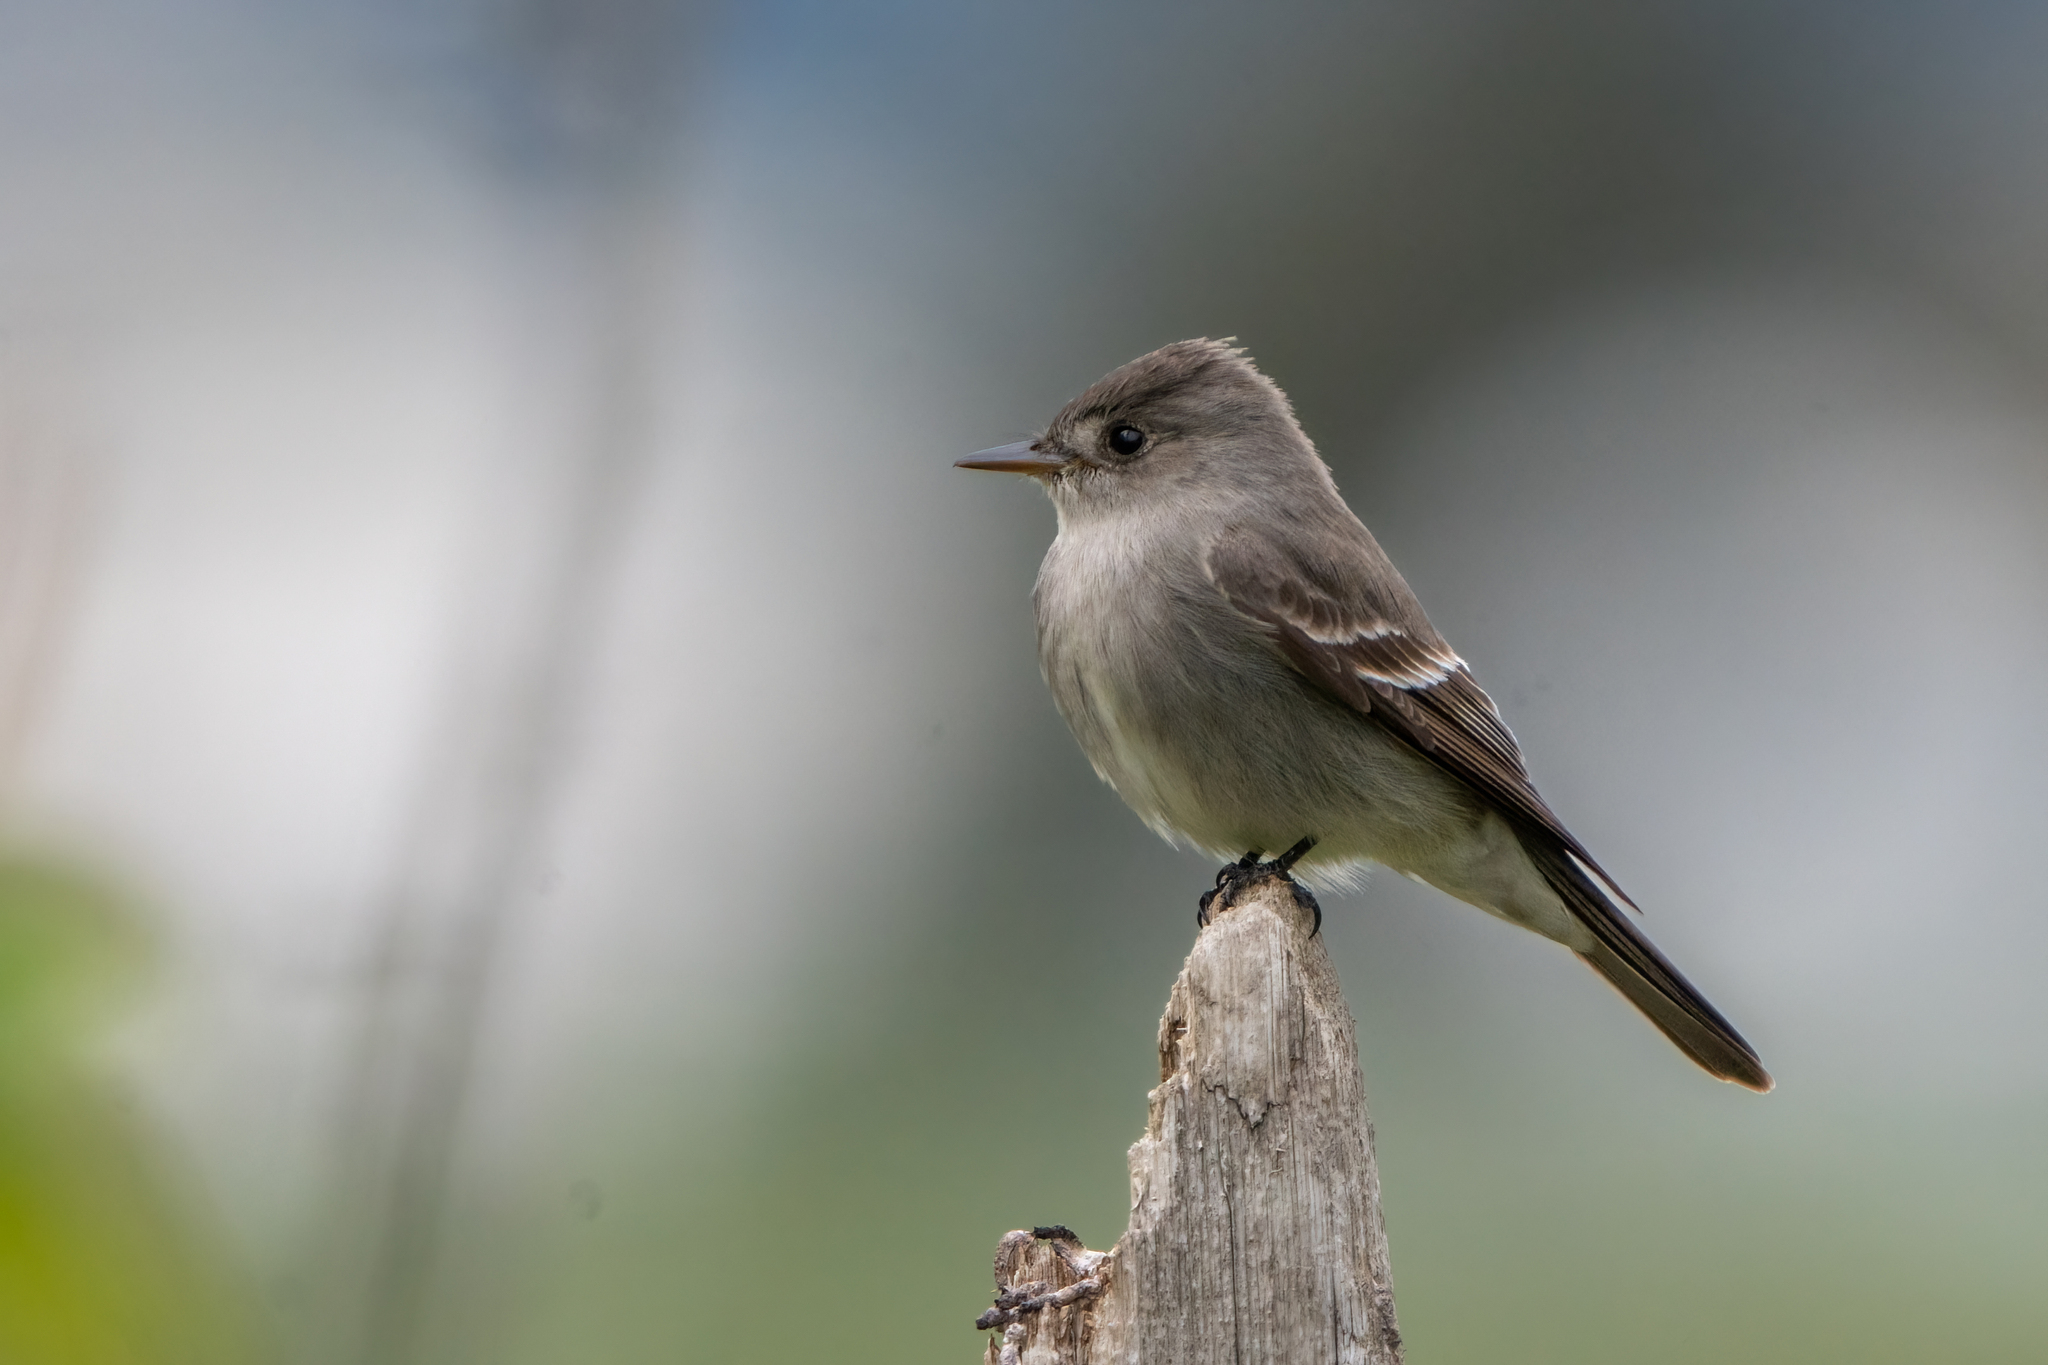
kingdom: Animalia
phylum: Chordata
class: Aves
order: Passeriformes
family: Tyrannidae
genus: Contopus
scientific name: Contopus sordidulus
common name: Western wood-pewee
